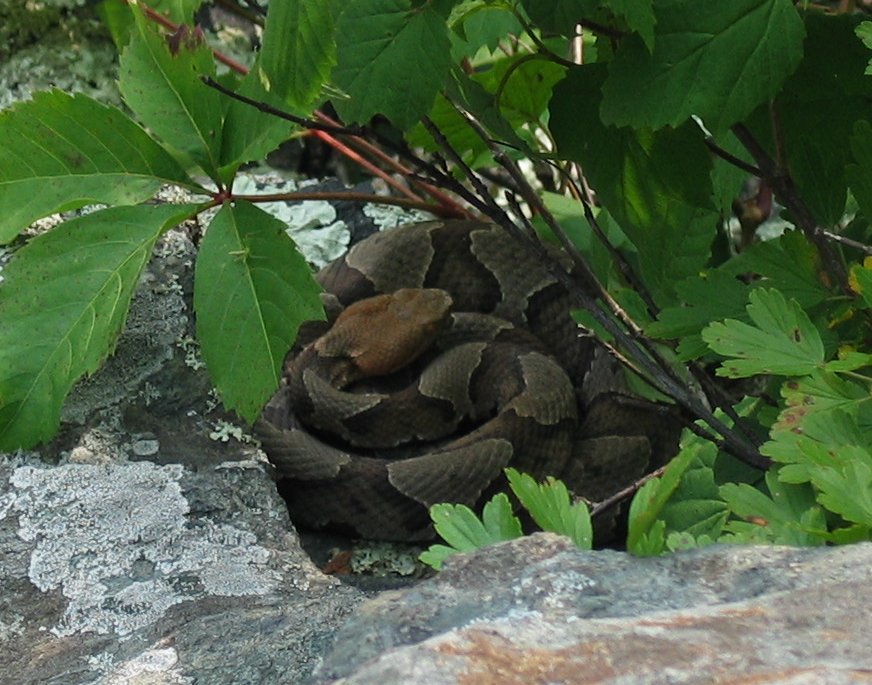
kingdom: Animalia
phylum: Chordata
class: Squamata
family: Viperidae
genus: Agkistrodon
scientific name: Agkistrodon contortrix
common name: Northern copperhead
